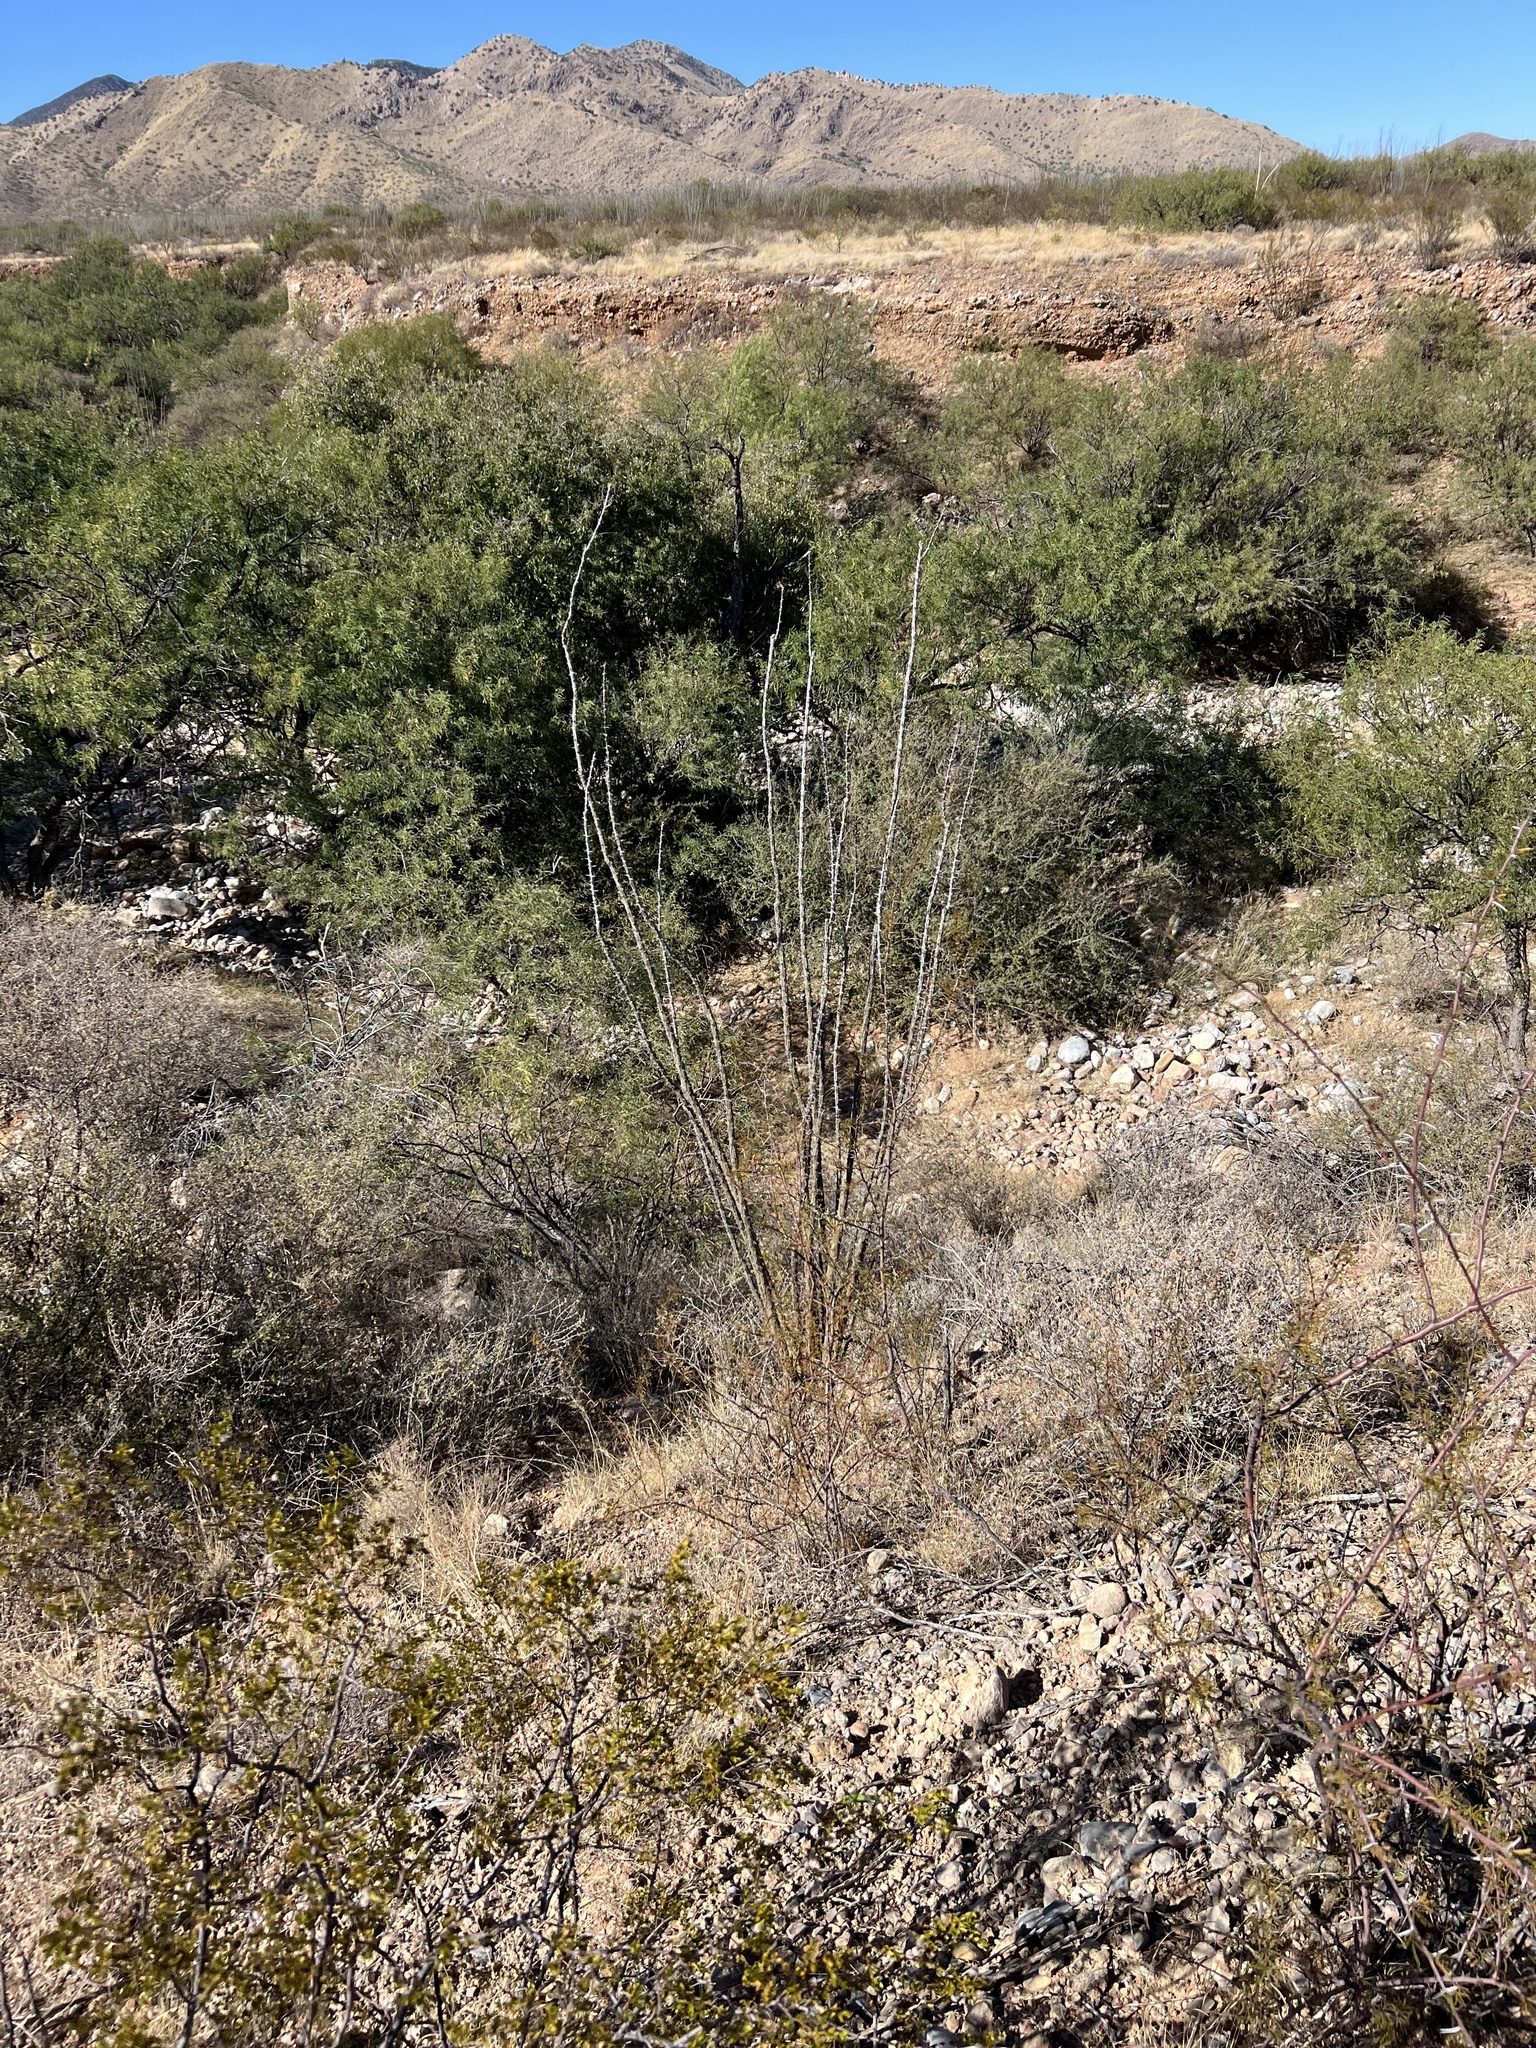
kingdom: Plantae
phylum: Tracheophyta
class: Magnoliopsida
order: Ericales
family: Fouquieriaceae
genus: Fouquieria
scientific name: Fouquieria splendens
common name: Vine-cactus
